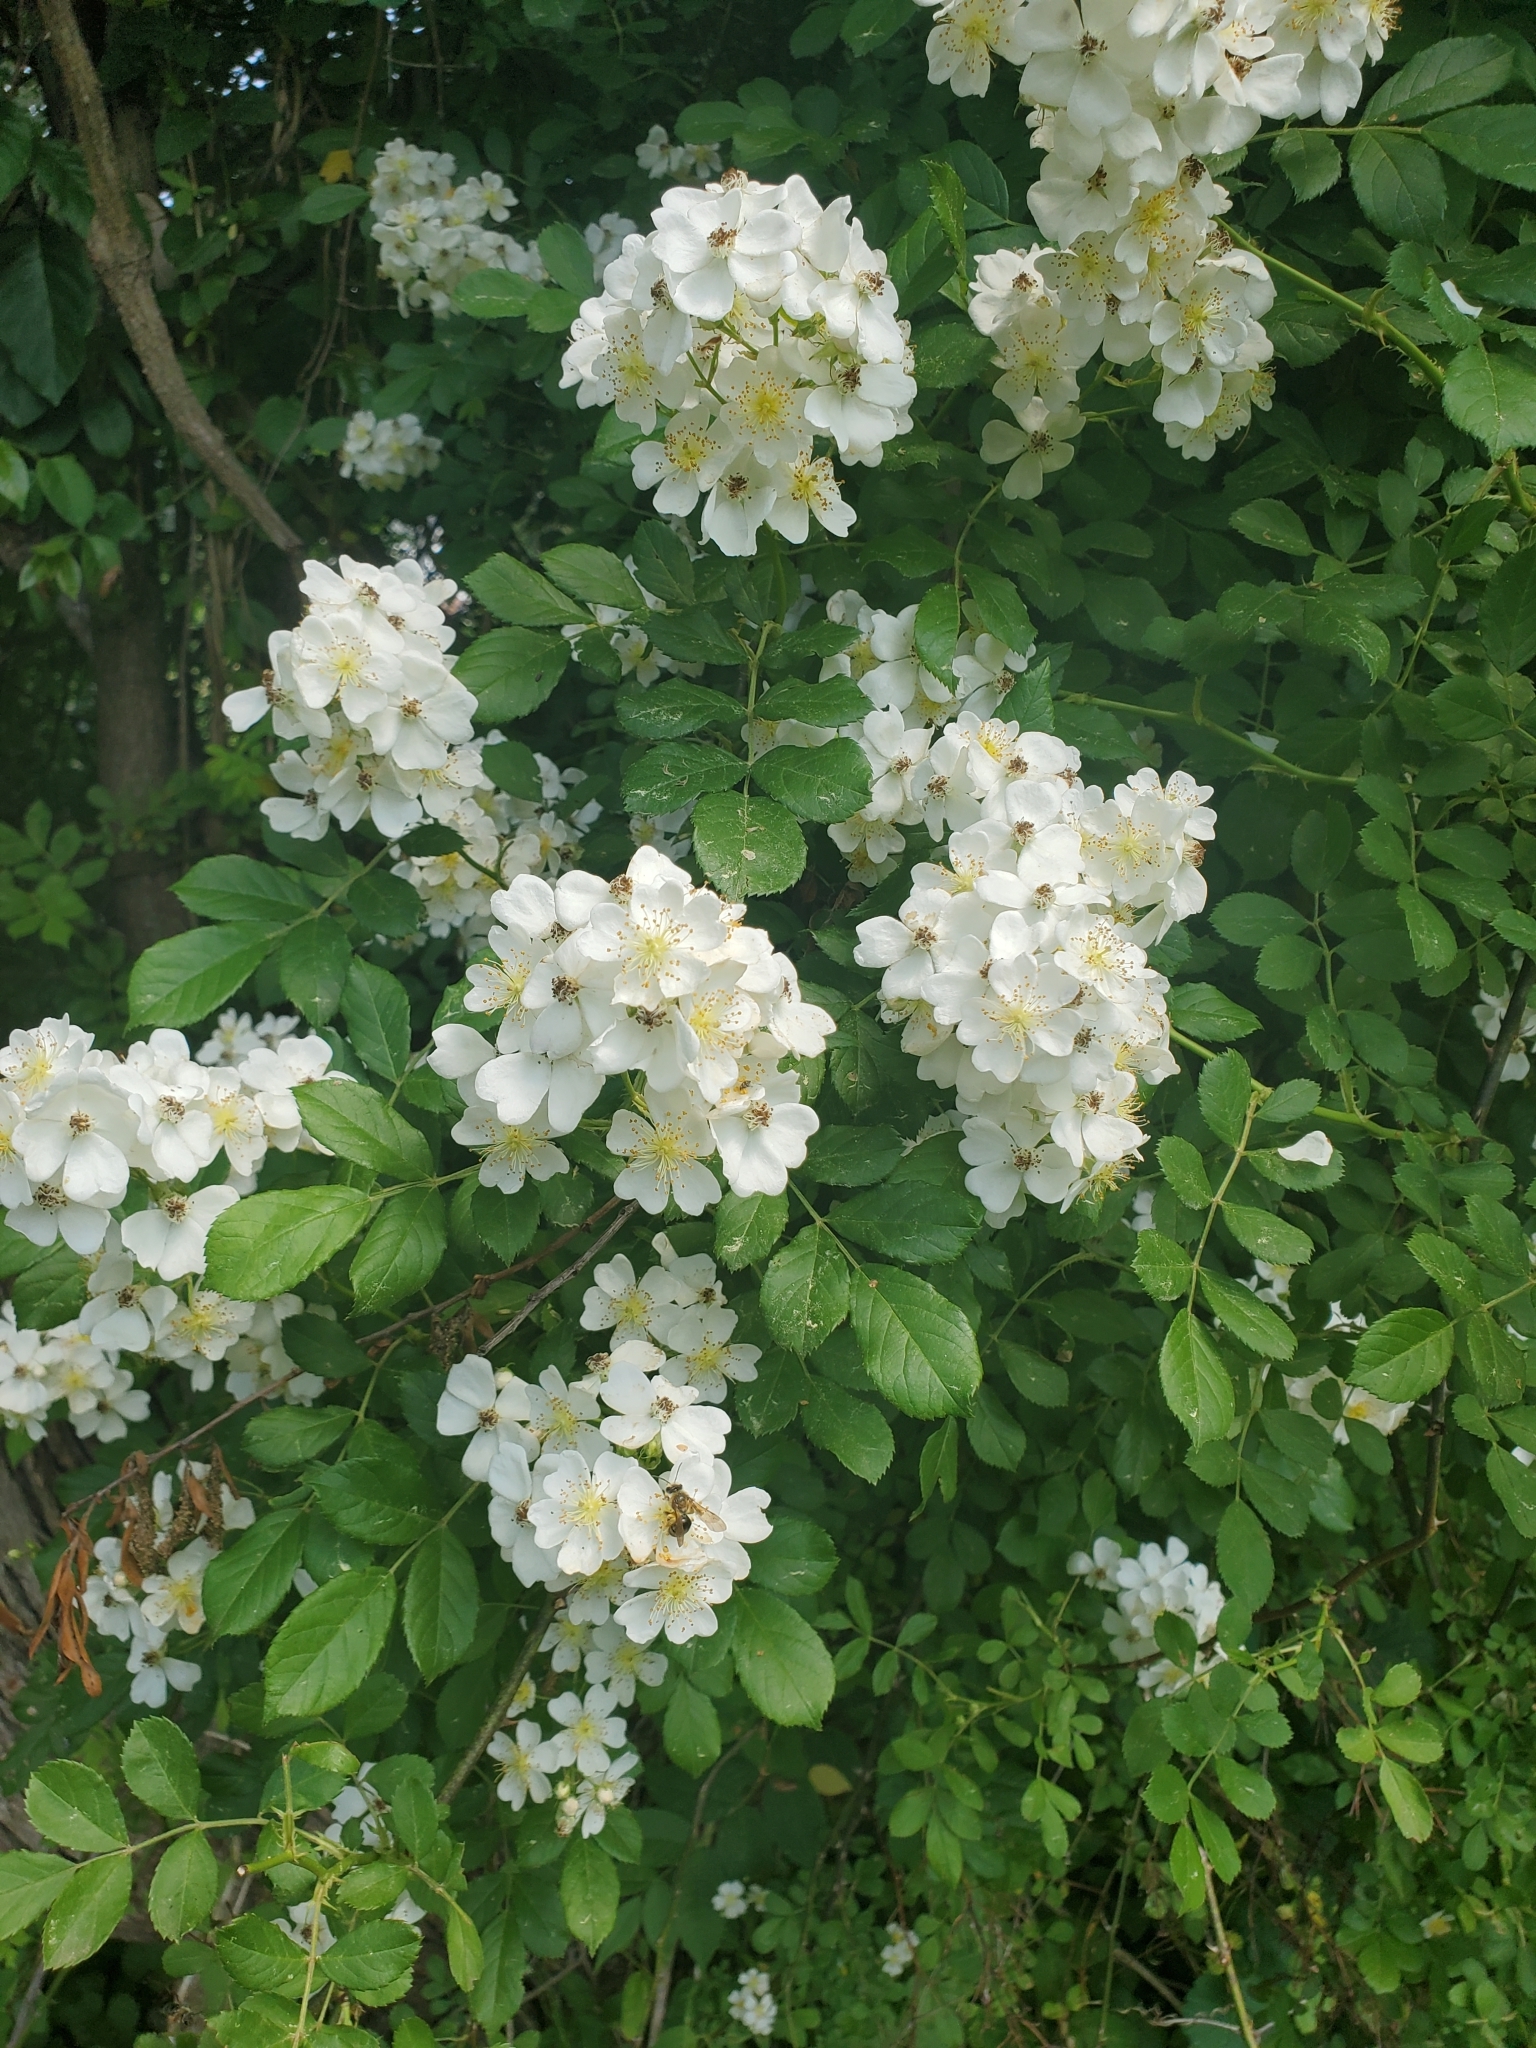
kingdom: Plantae
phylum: Tracheophyta
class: Magnoliopsida
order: Rosales
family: Rosaceae
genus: Rosa
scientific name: Rosa multiflora
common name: Multiflora rose
